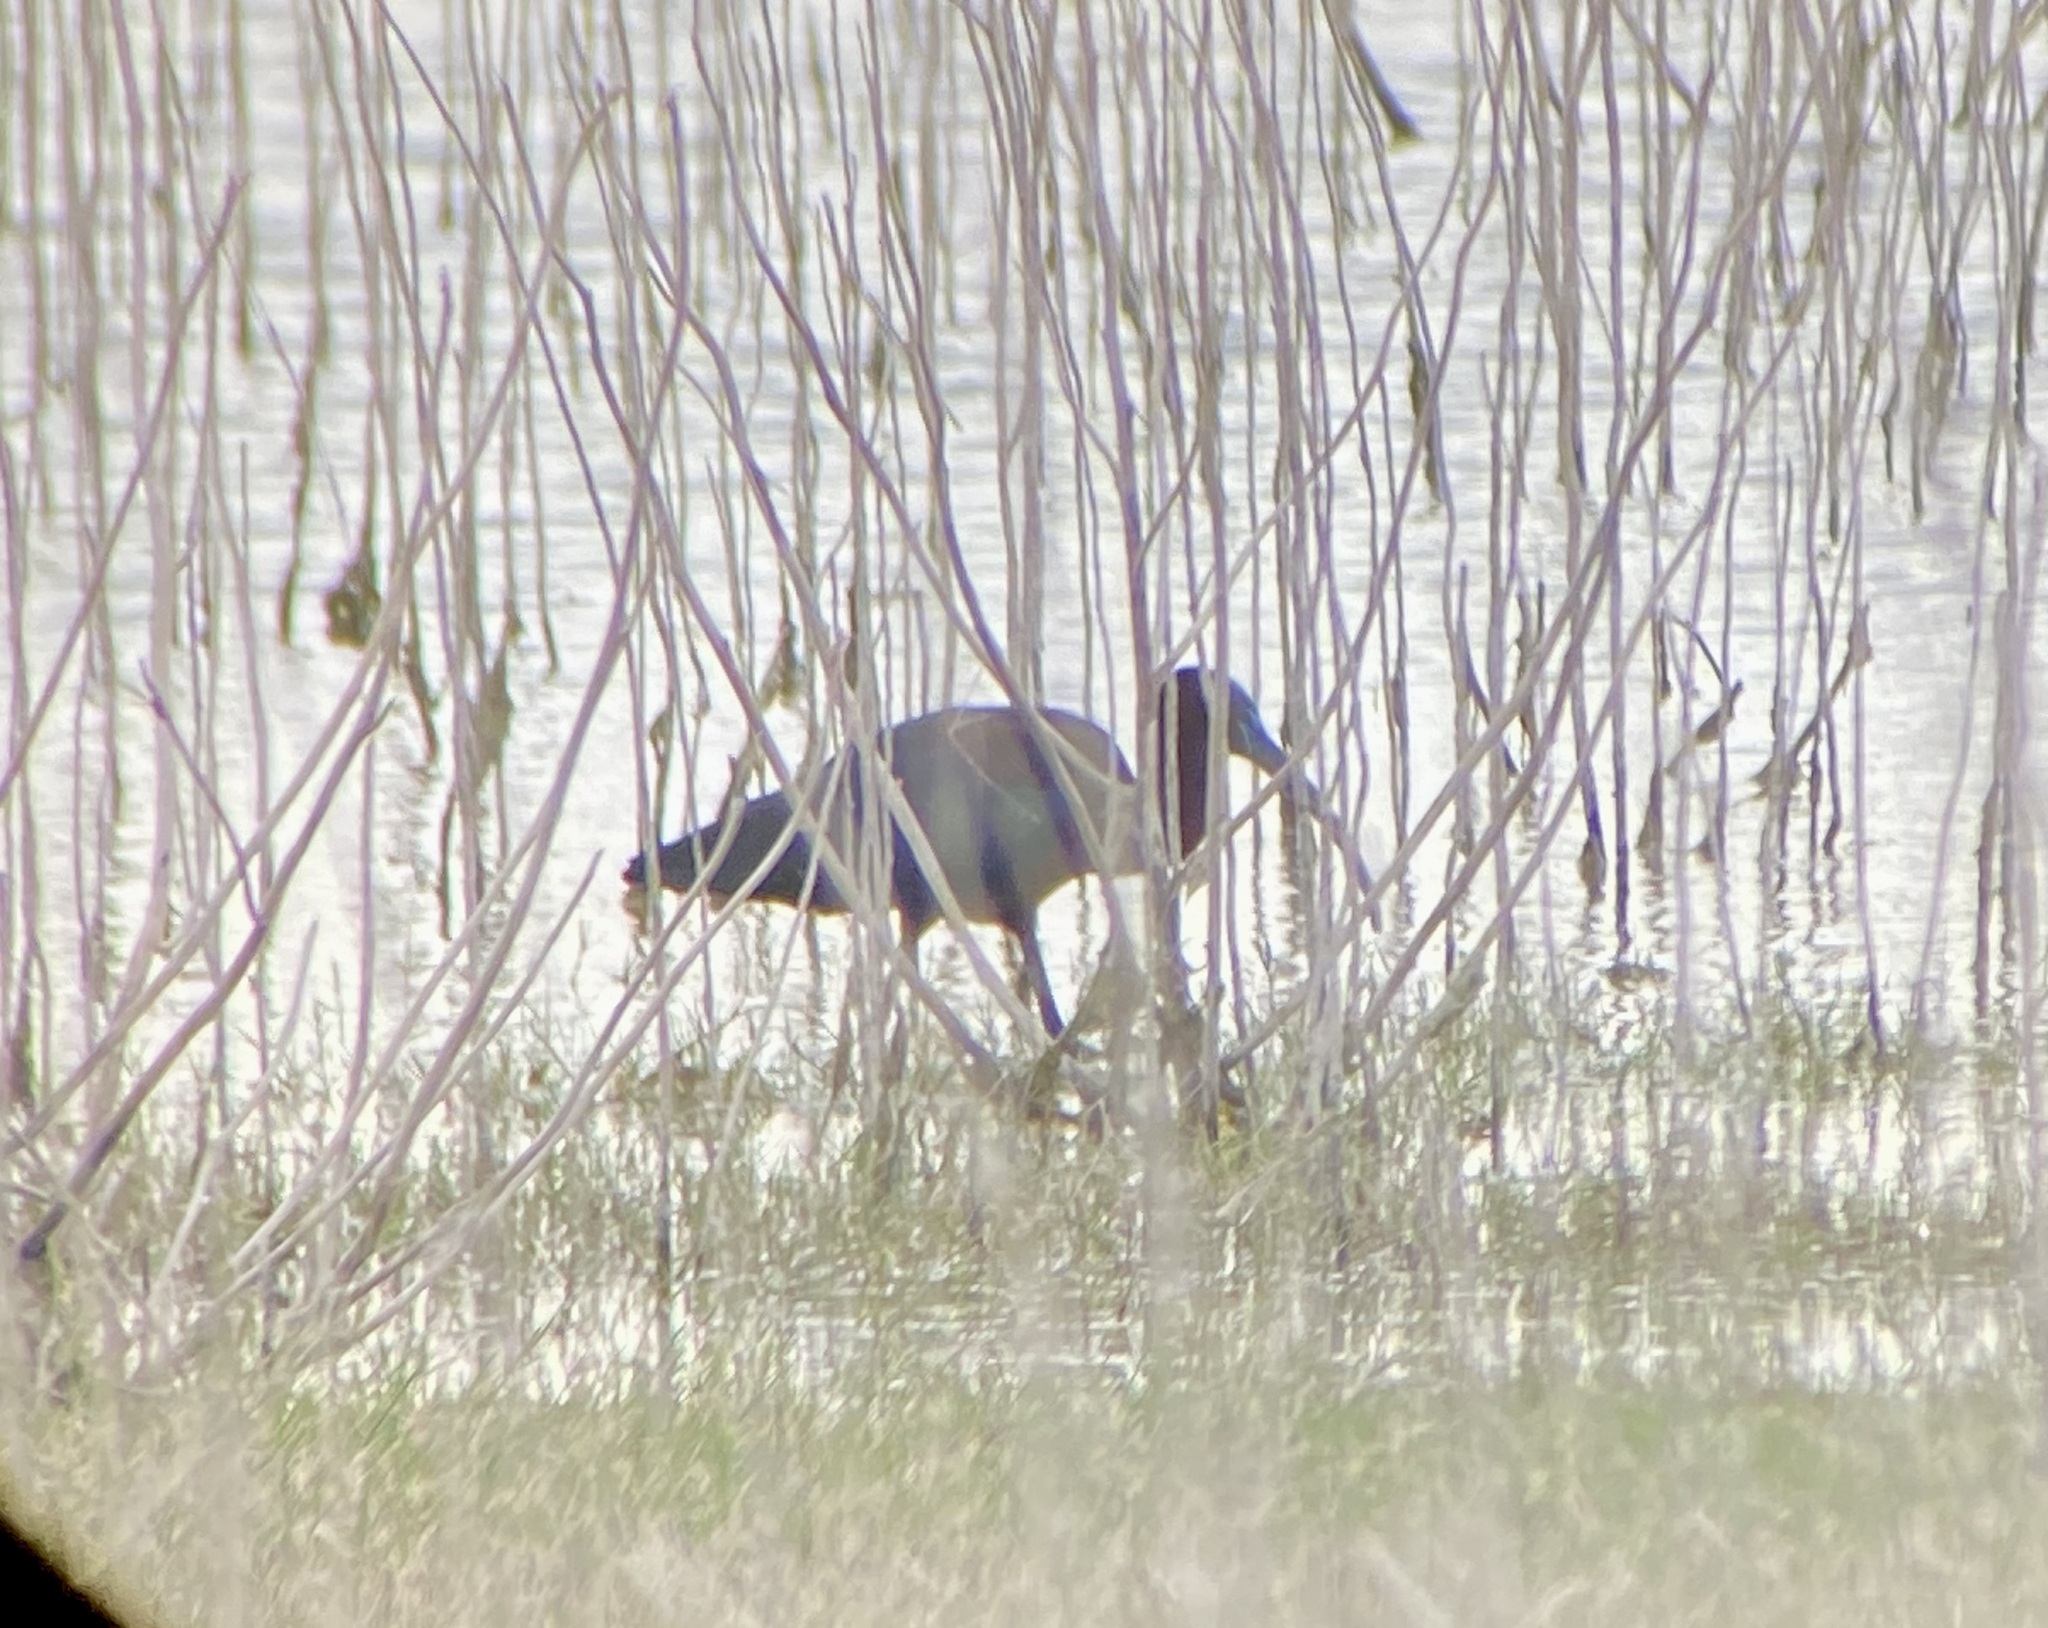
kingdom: Animalia
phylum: Chordata
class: Aves
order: Pelecaniformes
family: Threskiornithidae
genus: Plegadis
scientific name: Plegadis falcinellus
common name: Glossy ibis
